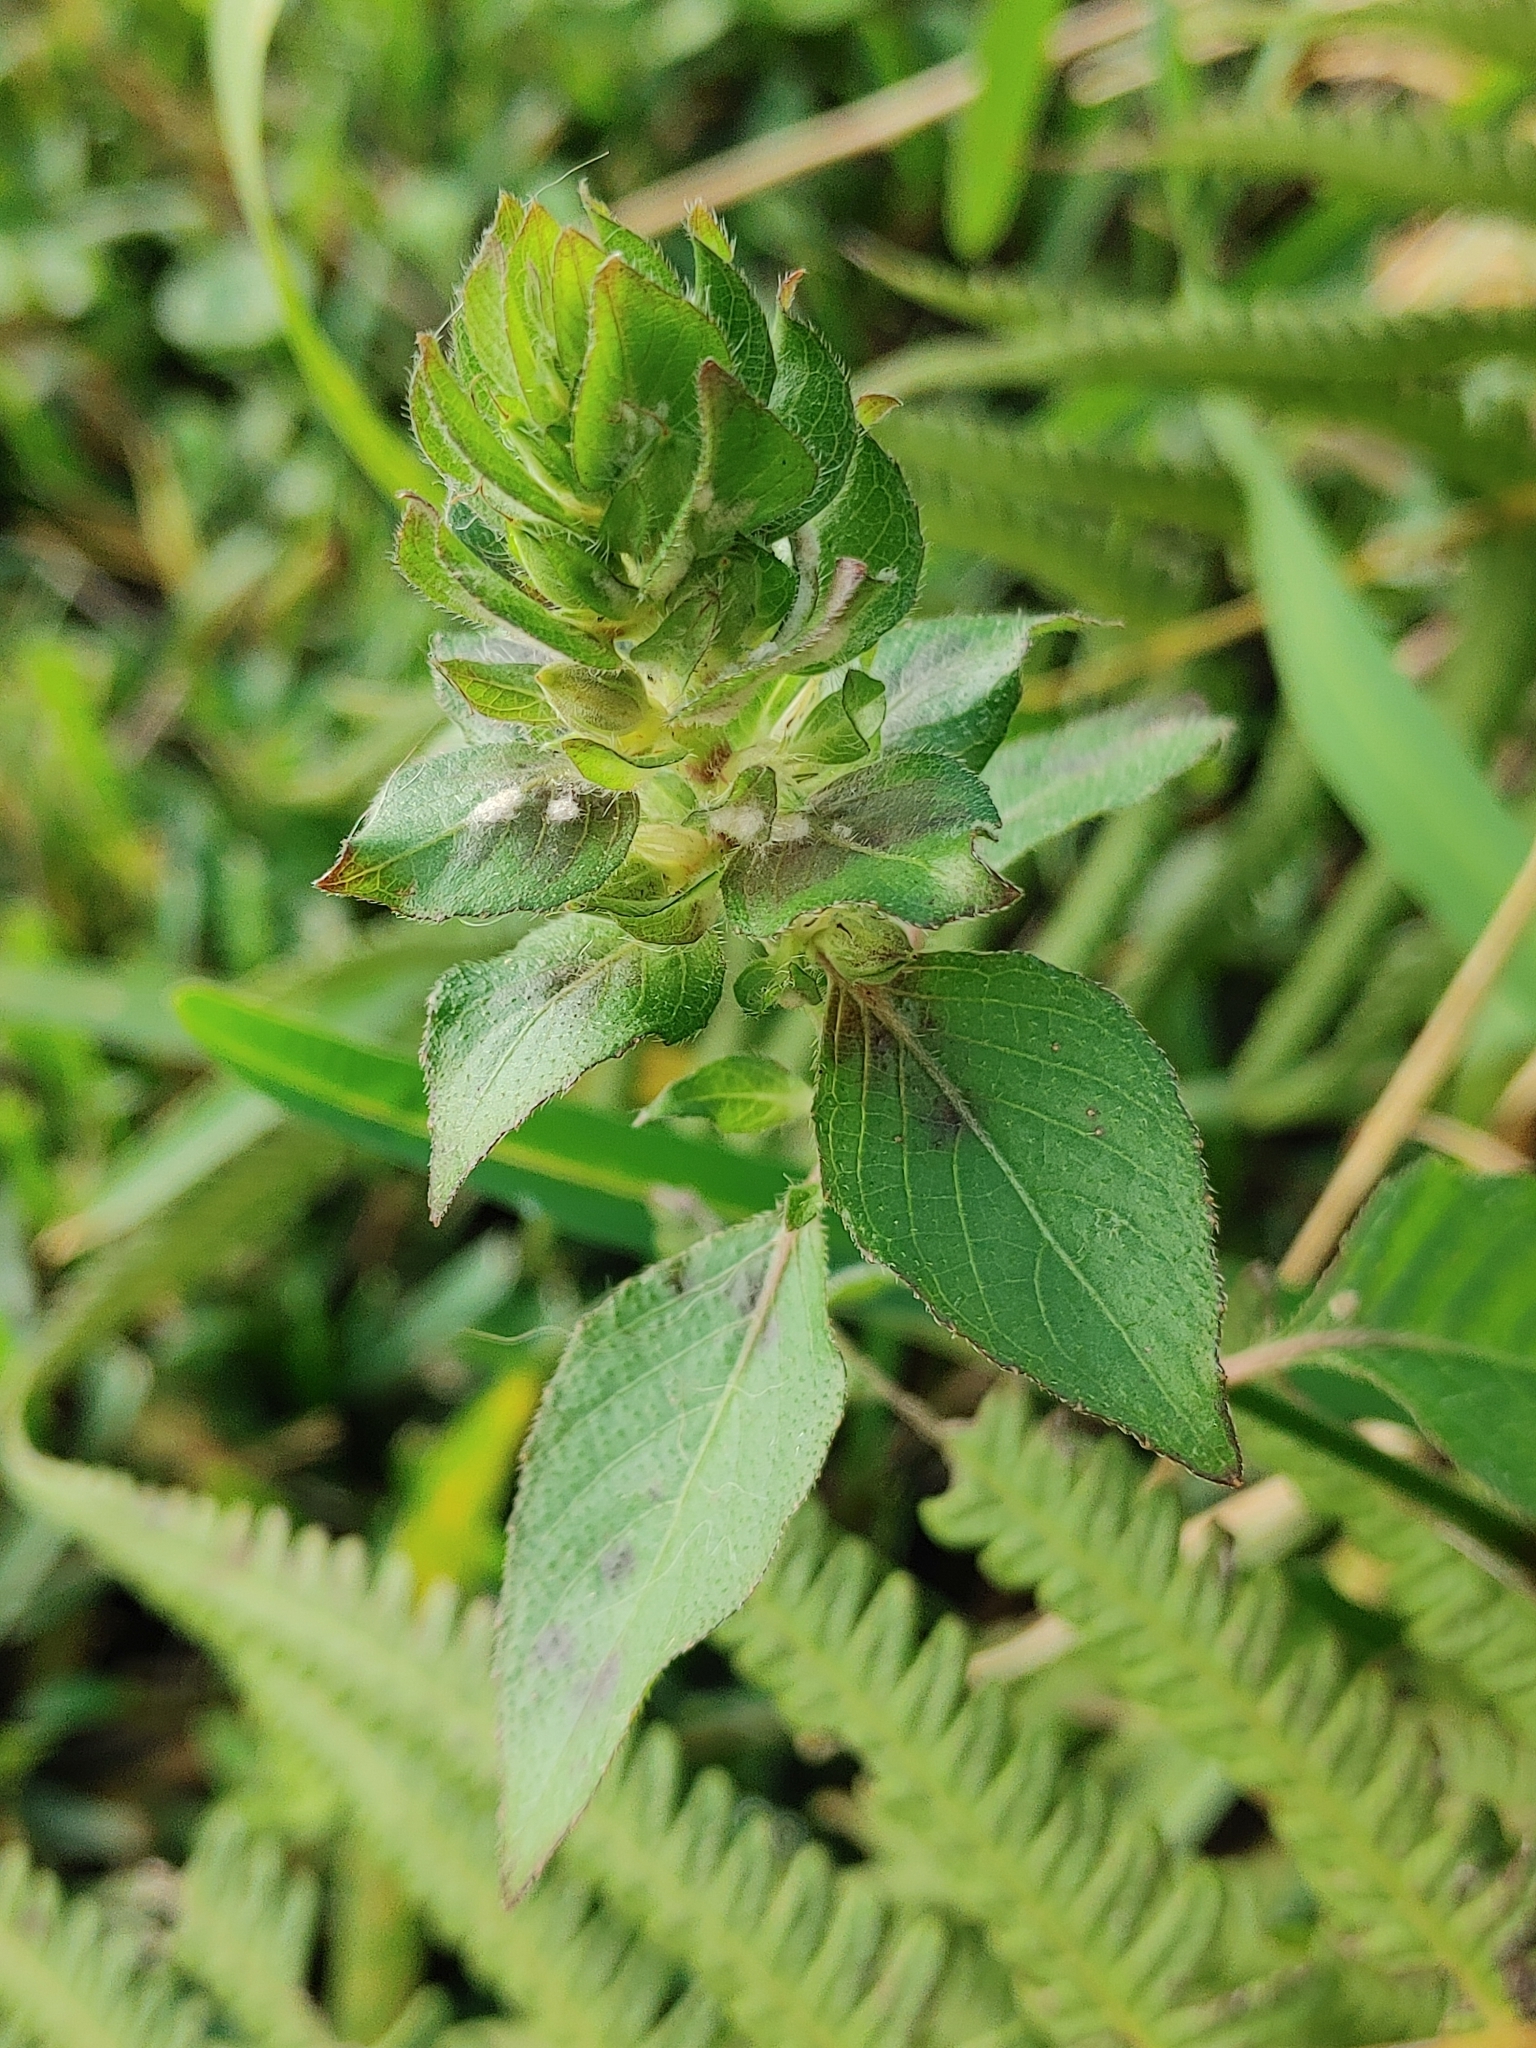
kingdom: Plantae
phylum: Tracheophyta
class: Magnoliopsida
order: Lamiales
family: Acanthaceae
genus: Ruellia
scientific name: Ruellia blechum
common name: Browne's blechum
